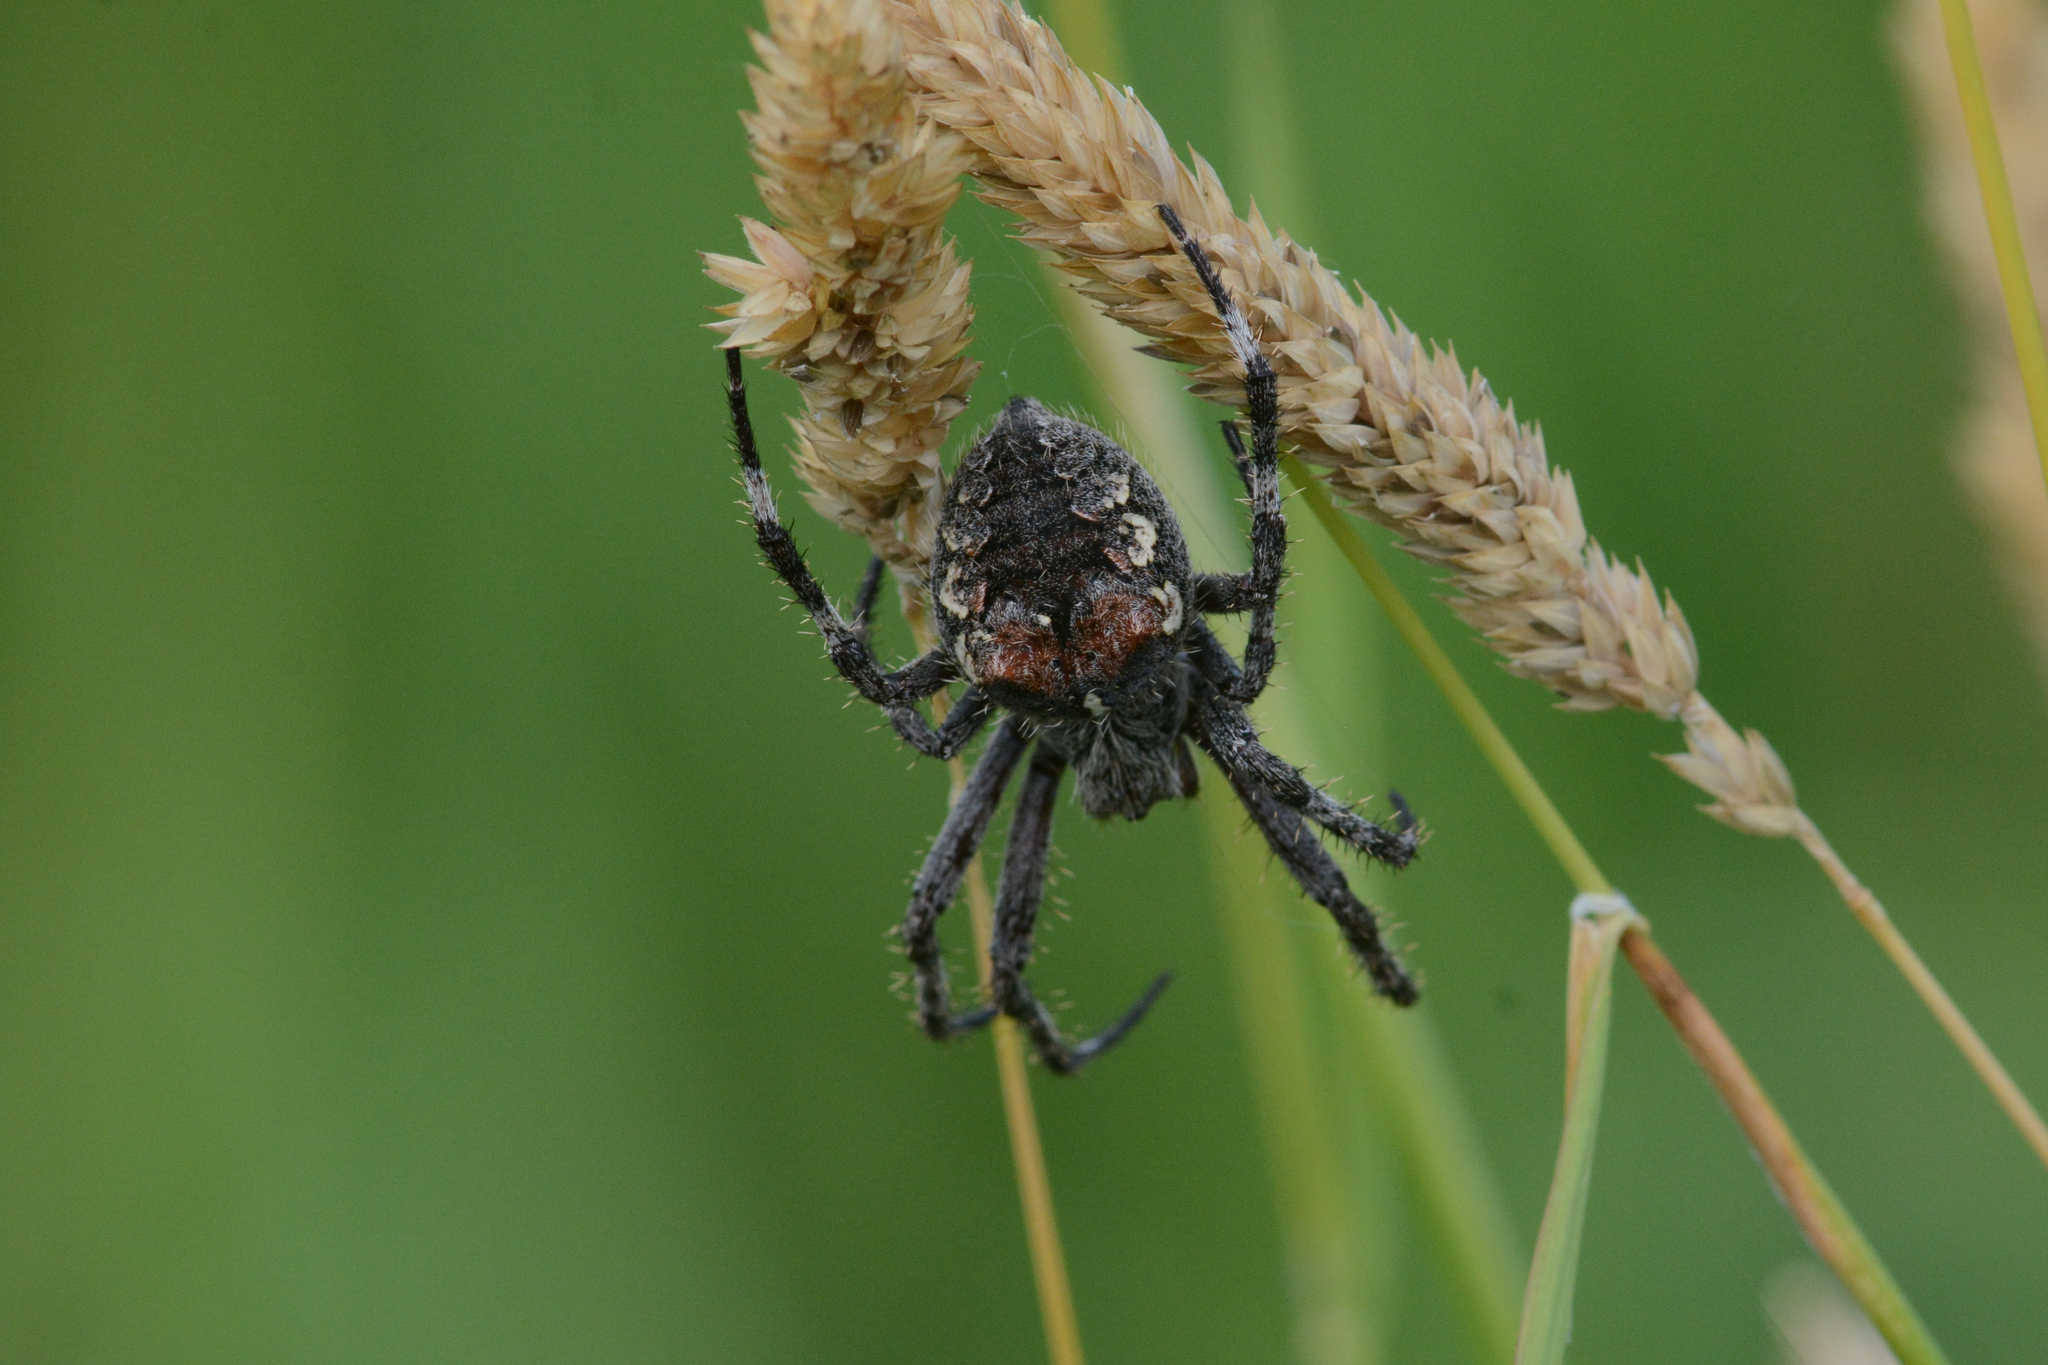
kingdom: Animalia
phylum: Arthropoda
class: Arachnida
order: Araneae
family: Araneidae
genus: Araneus
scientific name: Araneus saevus
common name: Fierce orbweaver
